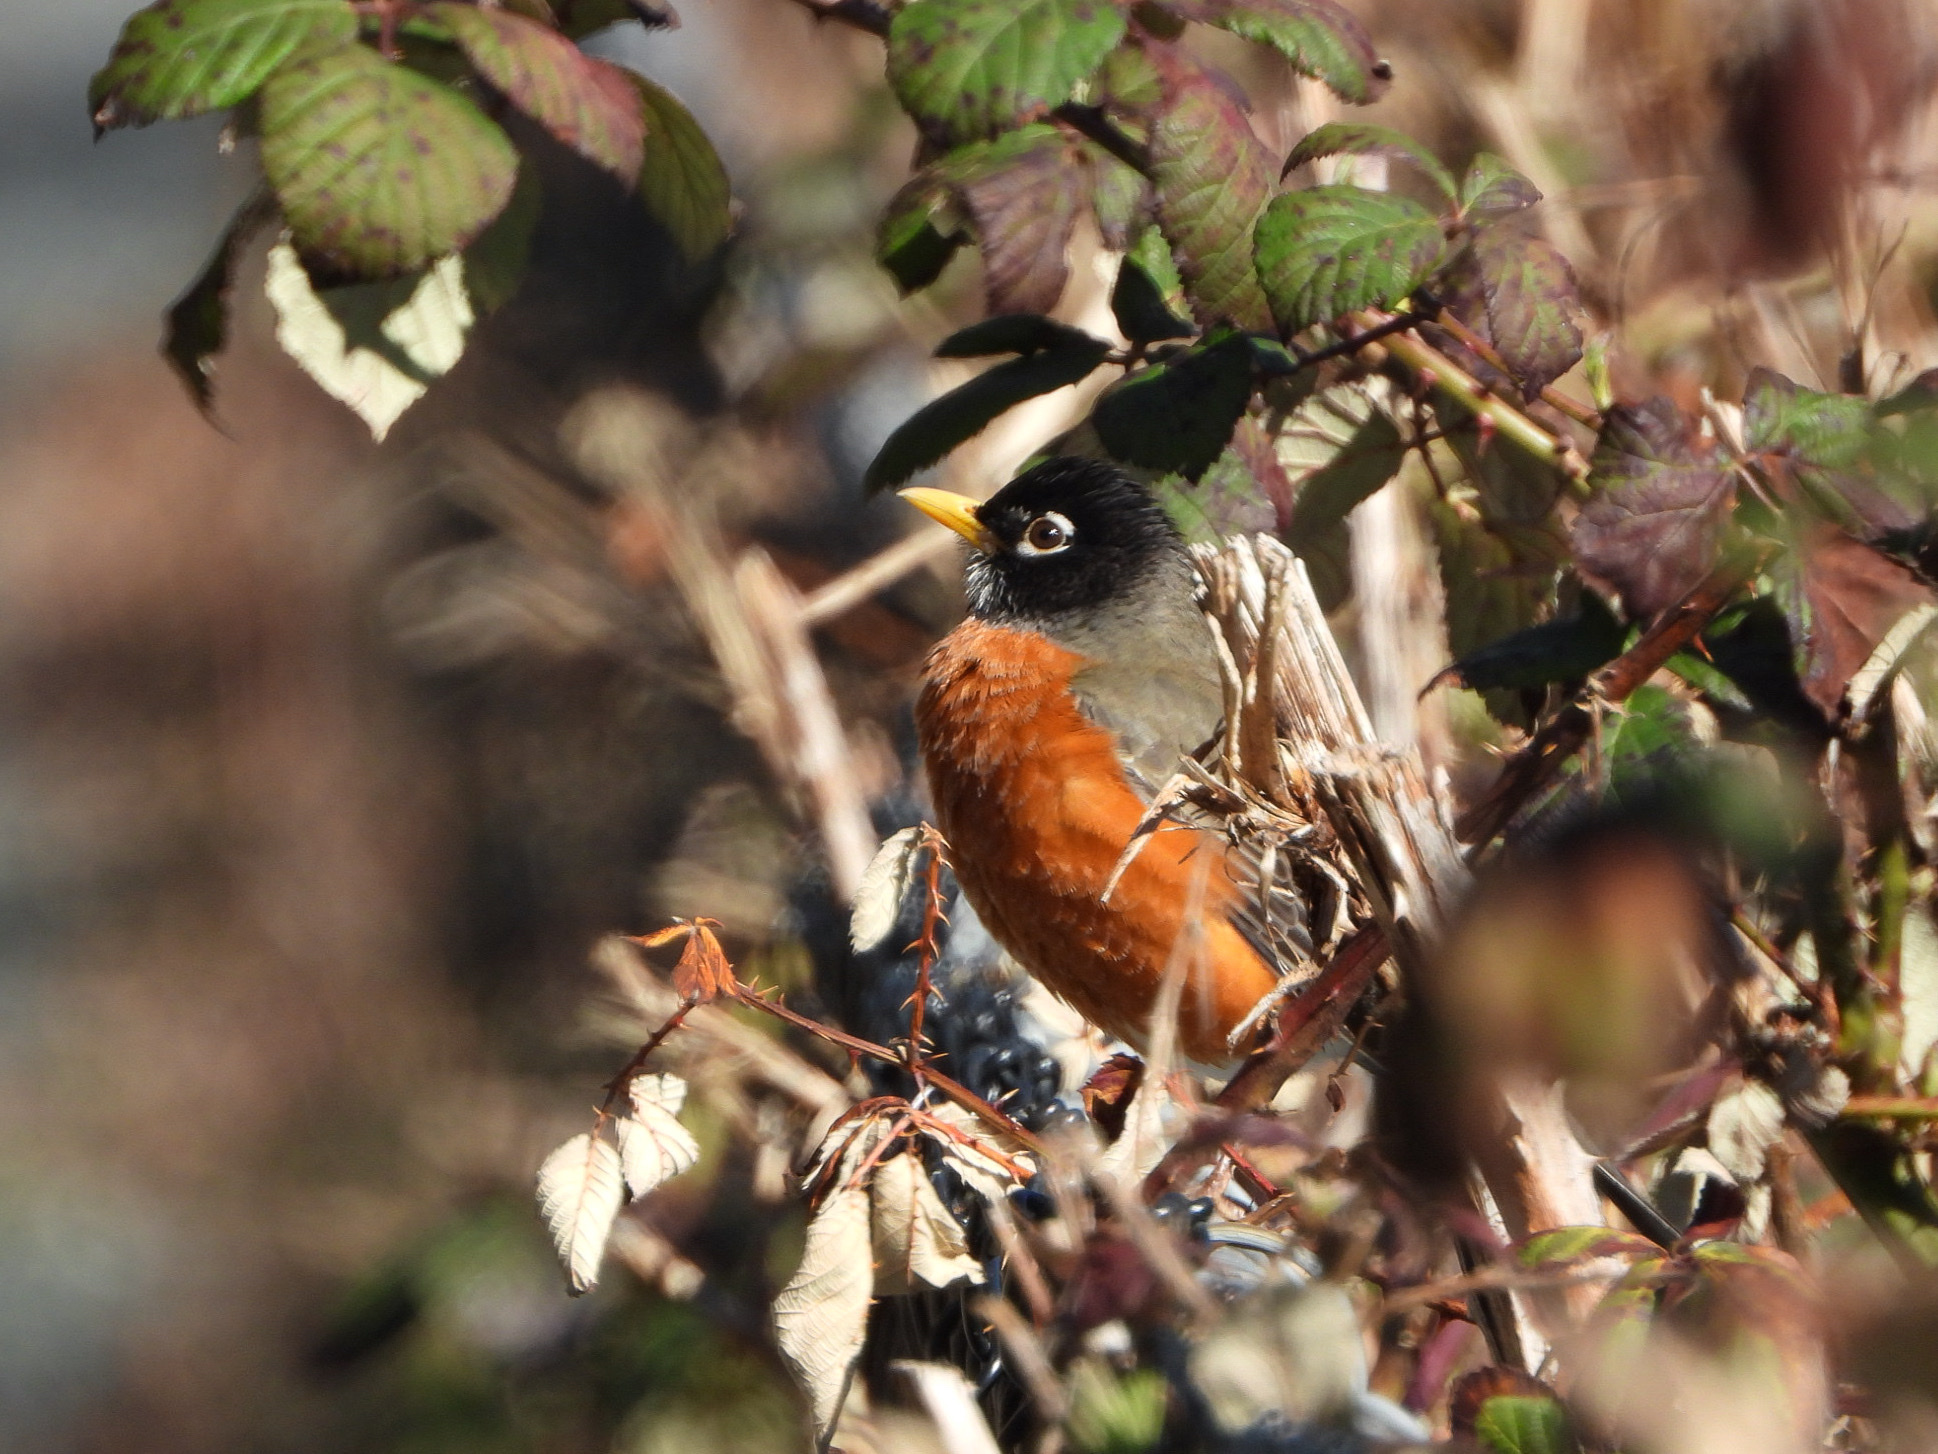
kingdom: Animalia
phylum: Chordata
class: Aves
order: Passeriformes
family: Turdidae
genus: Turdus
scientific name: Turdus migratorius
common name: American robin
